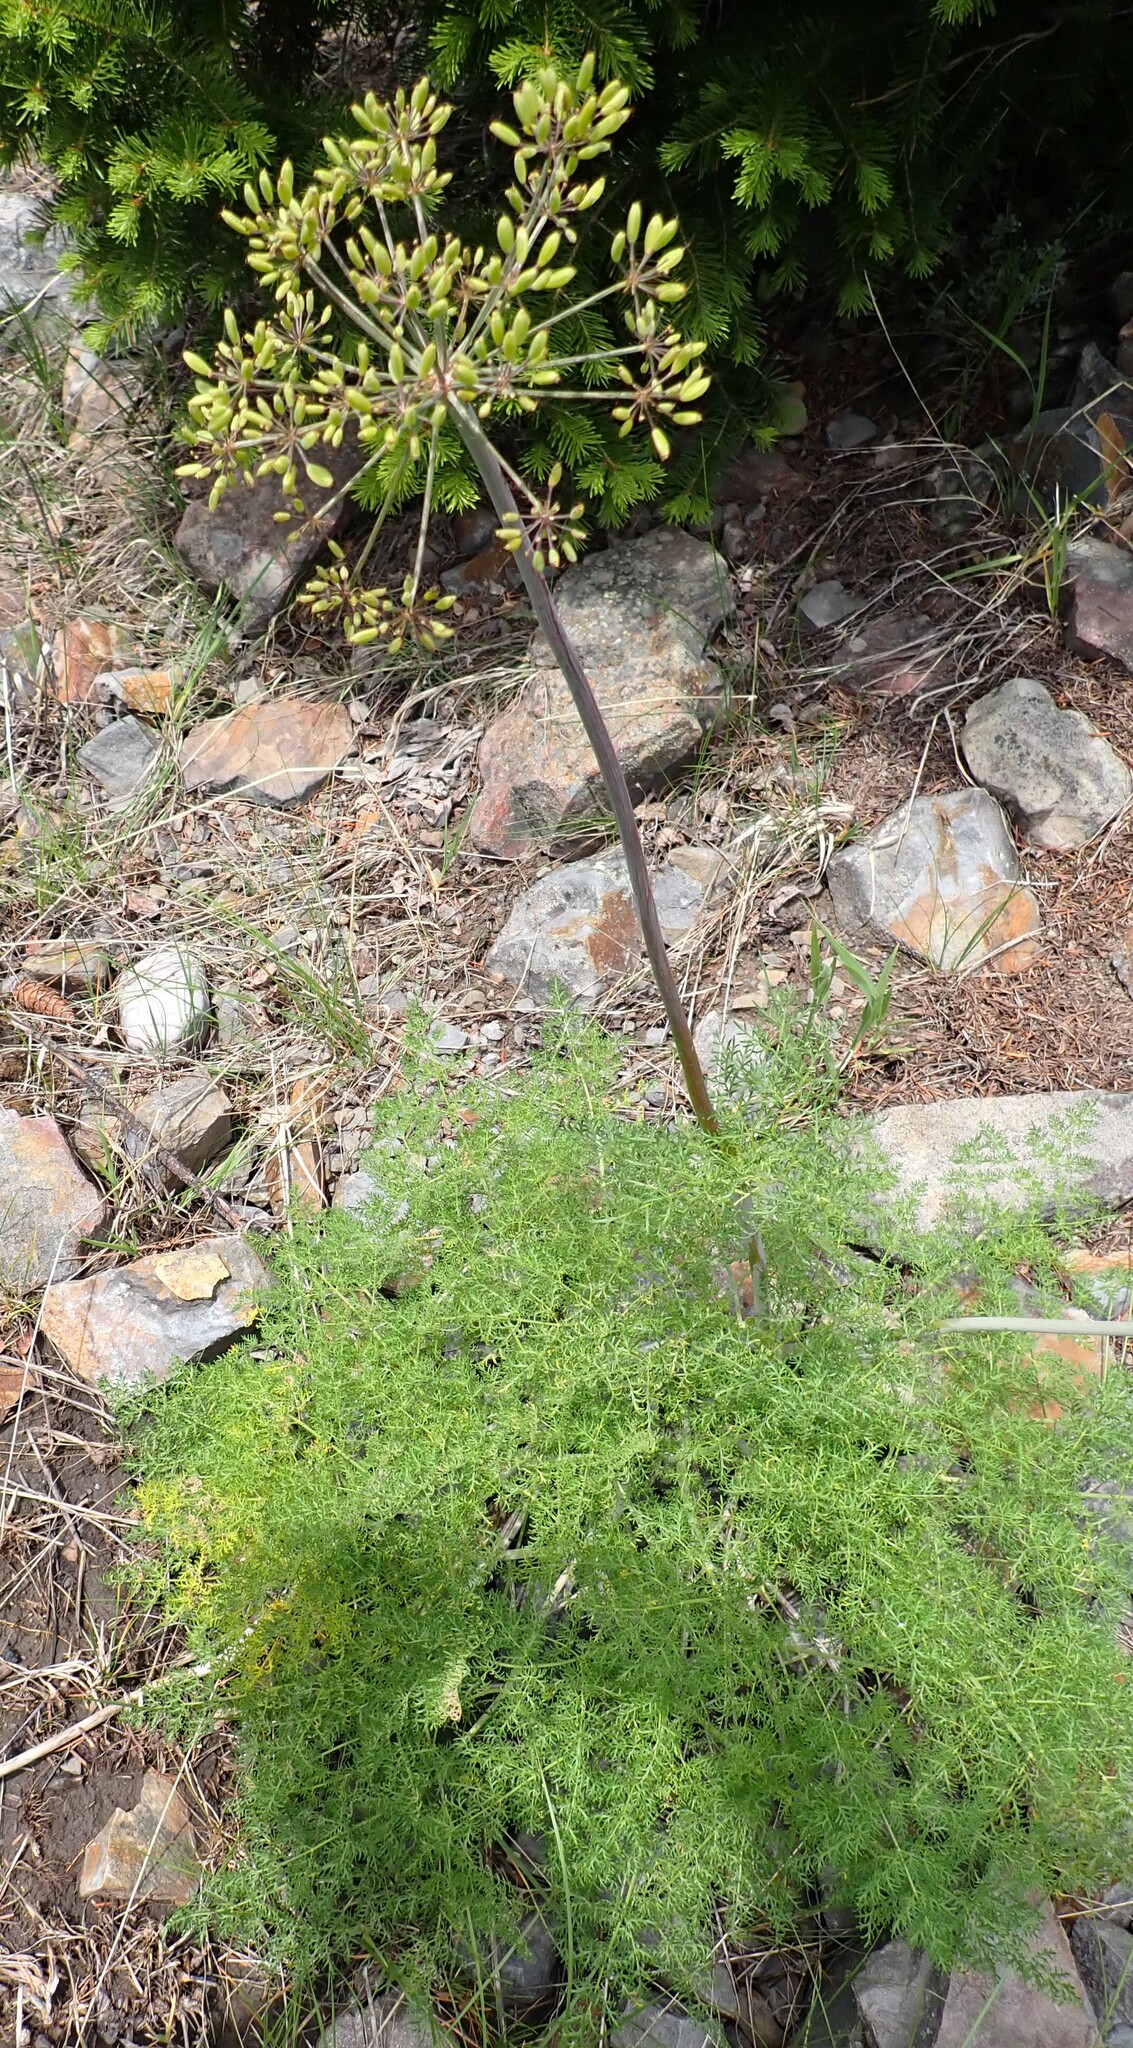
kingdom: Plantae
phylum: Tracheophyta
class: Magnoliopsida
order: Apiales
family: Apiaceae
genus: Lomatium
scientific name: Lomatium multifidum
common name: Carrot-leaved biscuitroot
